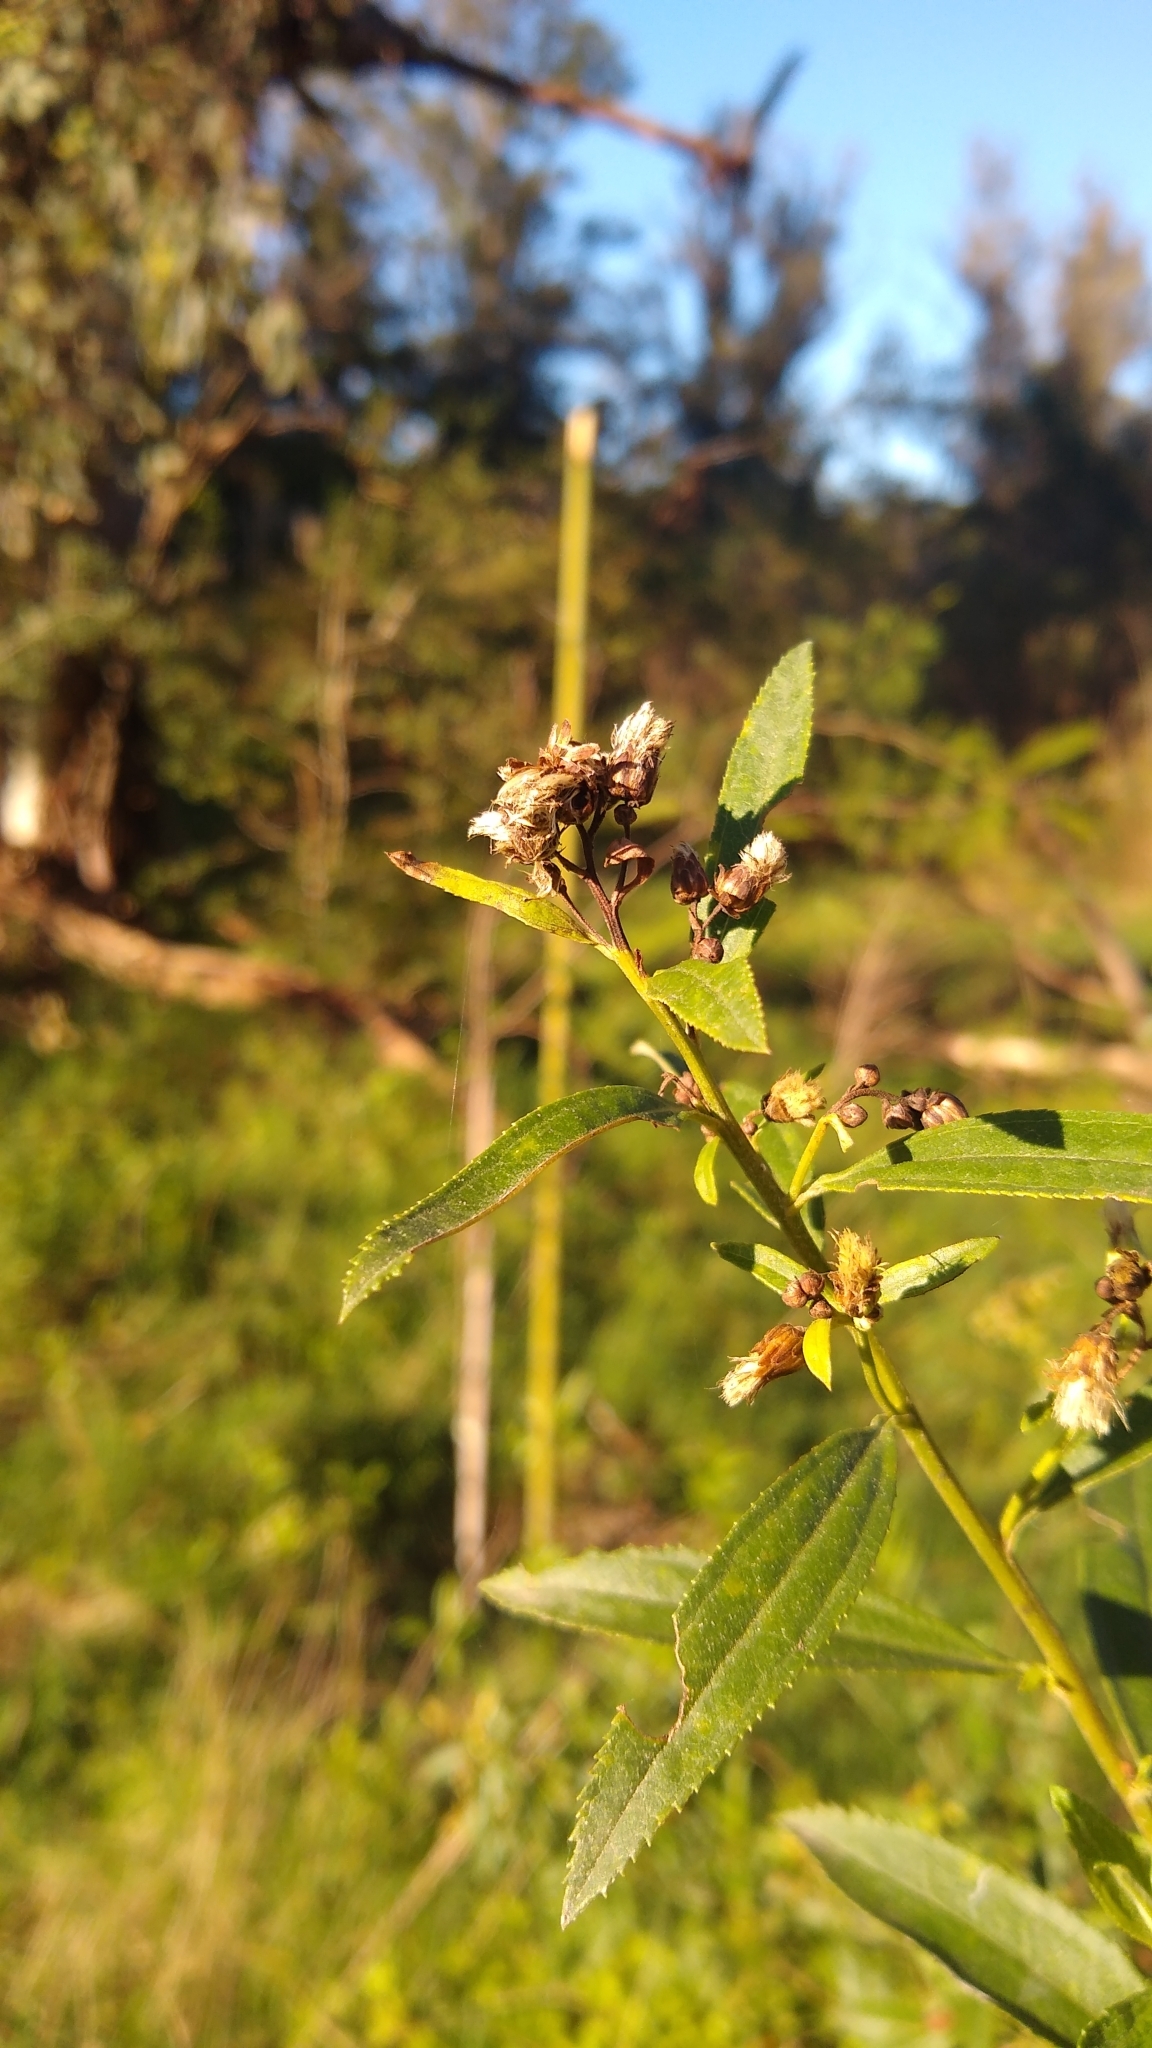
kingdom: Plantae
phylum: Tracheophyta
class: Magnoliopsida
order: Asterales
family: Asteraceae
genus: Baccharis
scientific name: Baccharis punctulata
